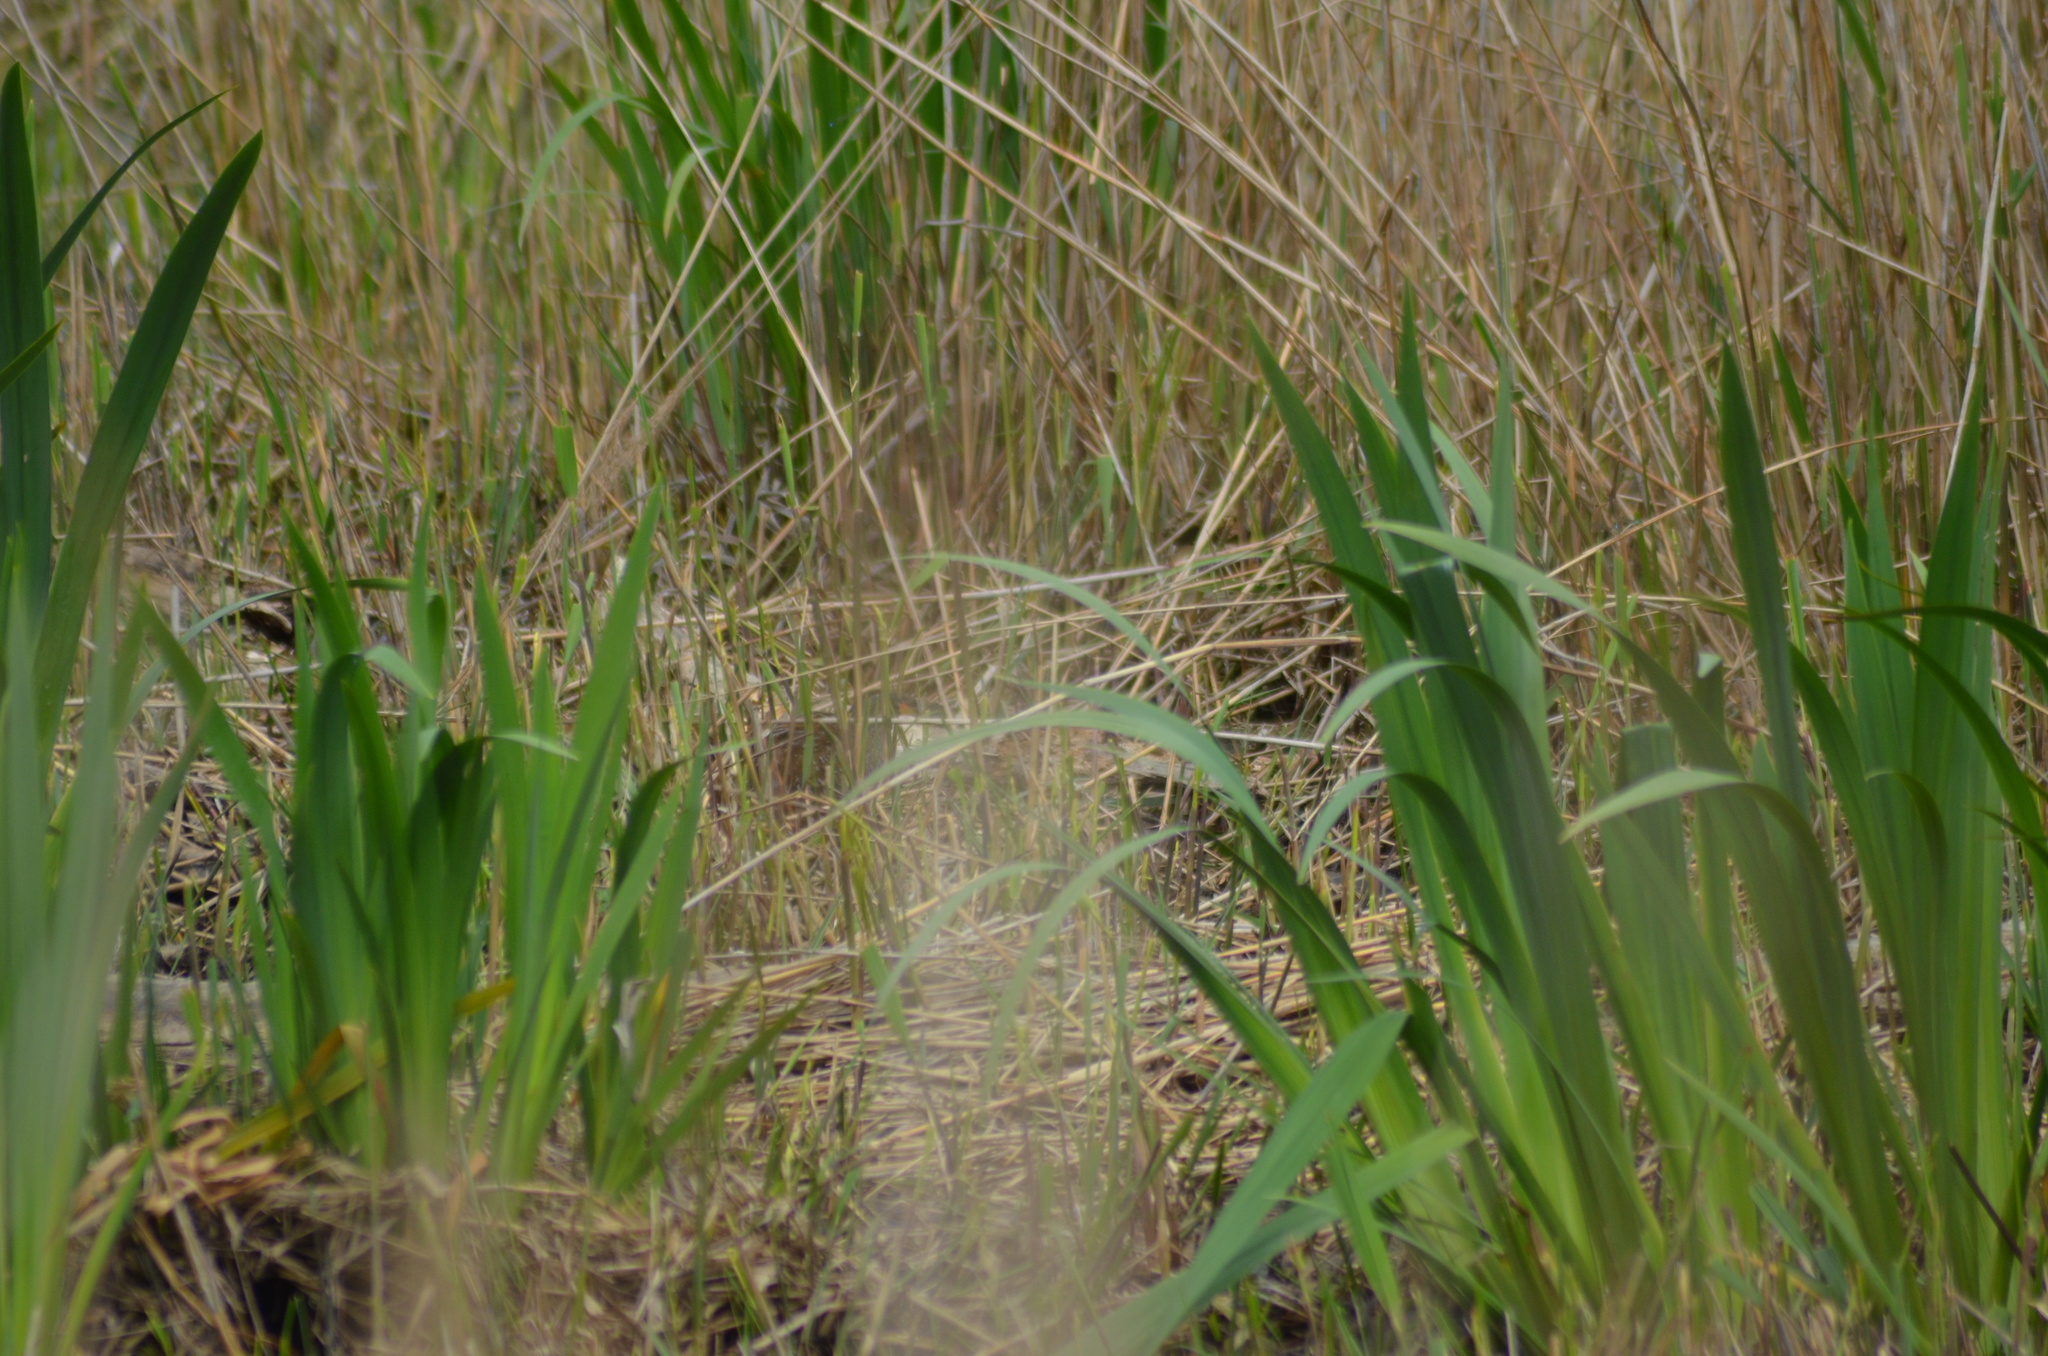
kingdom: Animalia
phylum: Chordata
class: Aves
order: Gruiformes
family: Rallidae
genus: Porzana
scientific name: Porzana porzana
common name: Spotted crake
